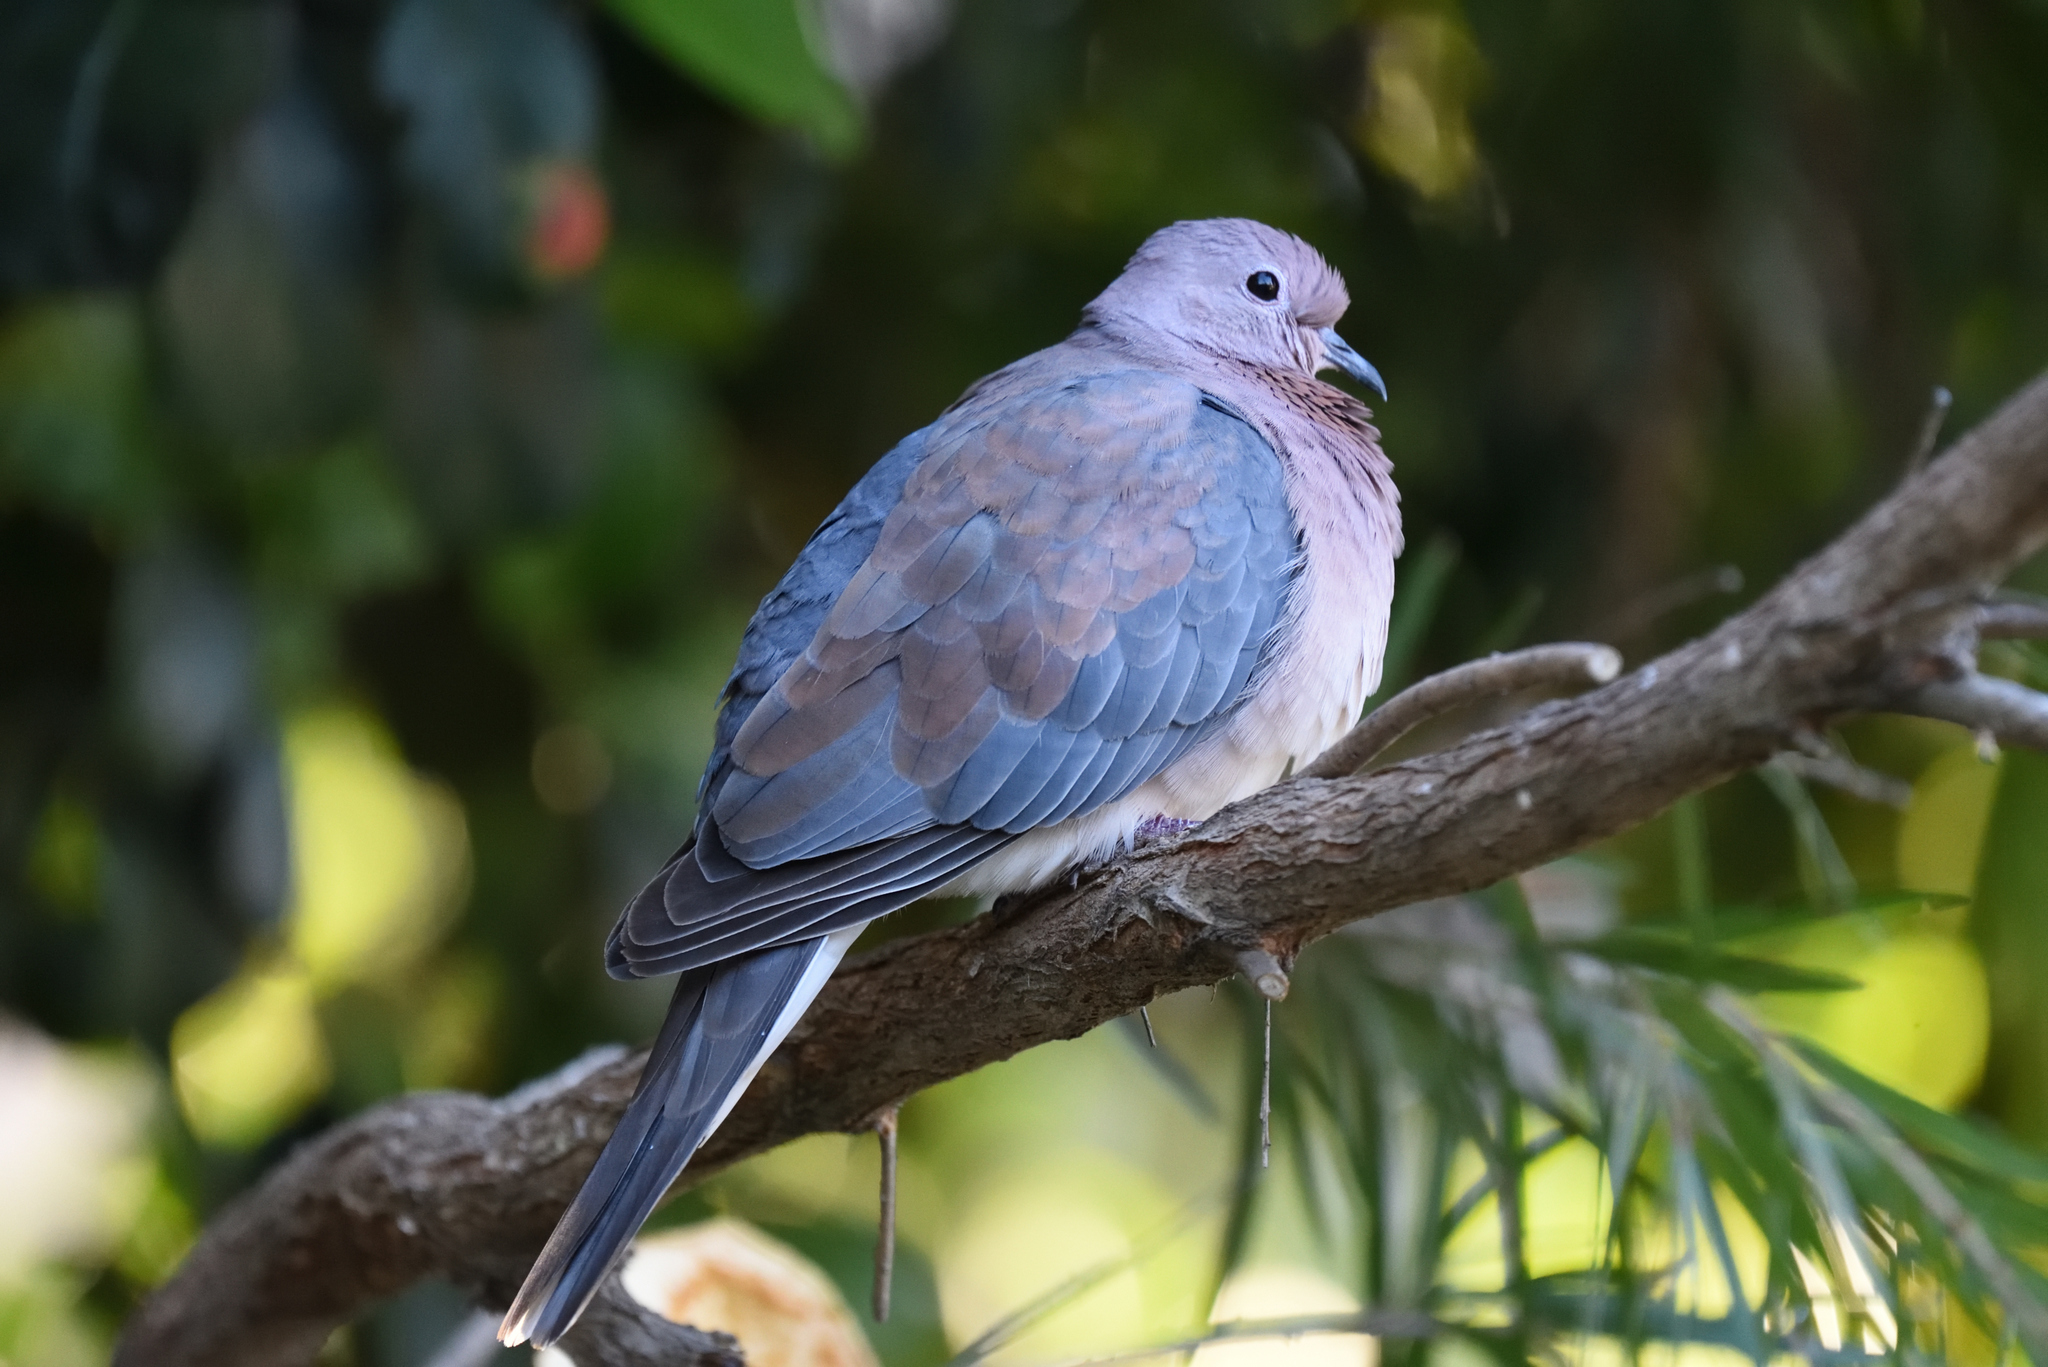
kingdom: Animalia
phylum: Chordata
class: Aves
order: Columbiformes
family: Columbidae
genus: Spilopelia
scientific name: Spilopelia senegalensis
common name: Laughing dove
